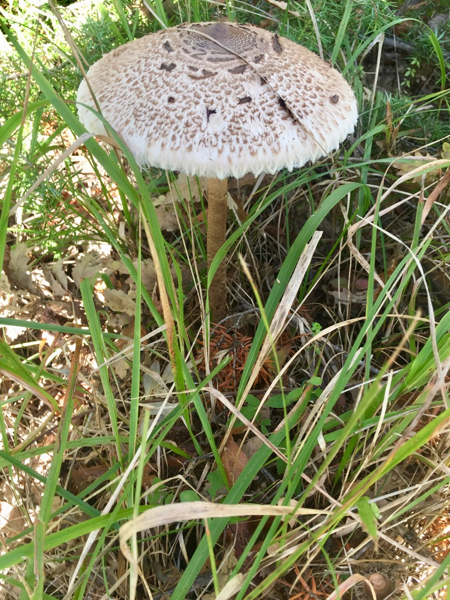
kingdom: Fungi
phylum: Basidiomycota
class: Agaricomycetes
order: Agaricales
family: Agaricaceae
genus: Macrolepiota
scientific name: Macrolepiota procera
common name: Parasol
